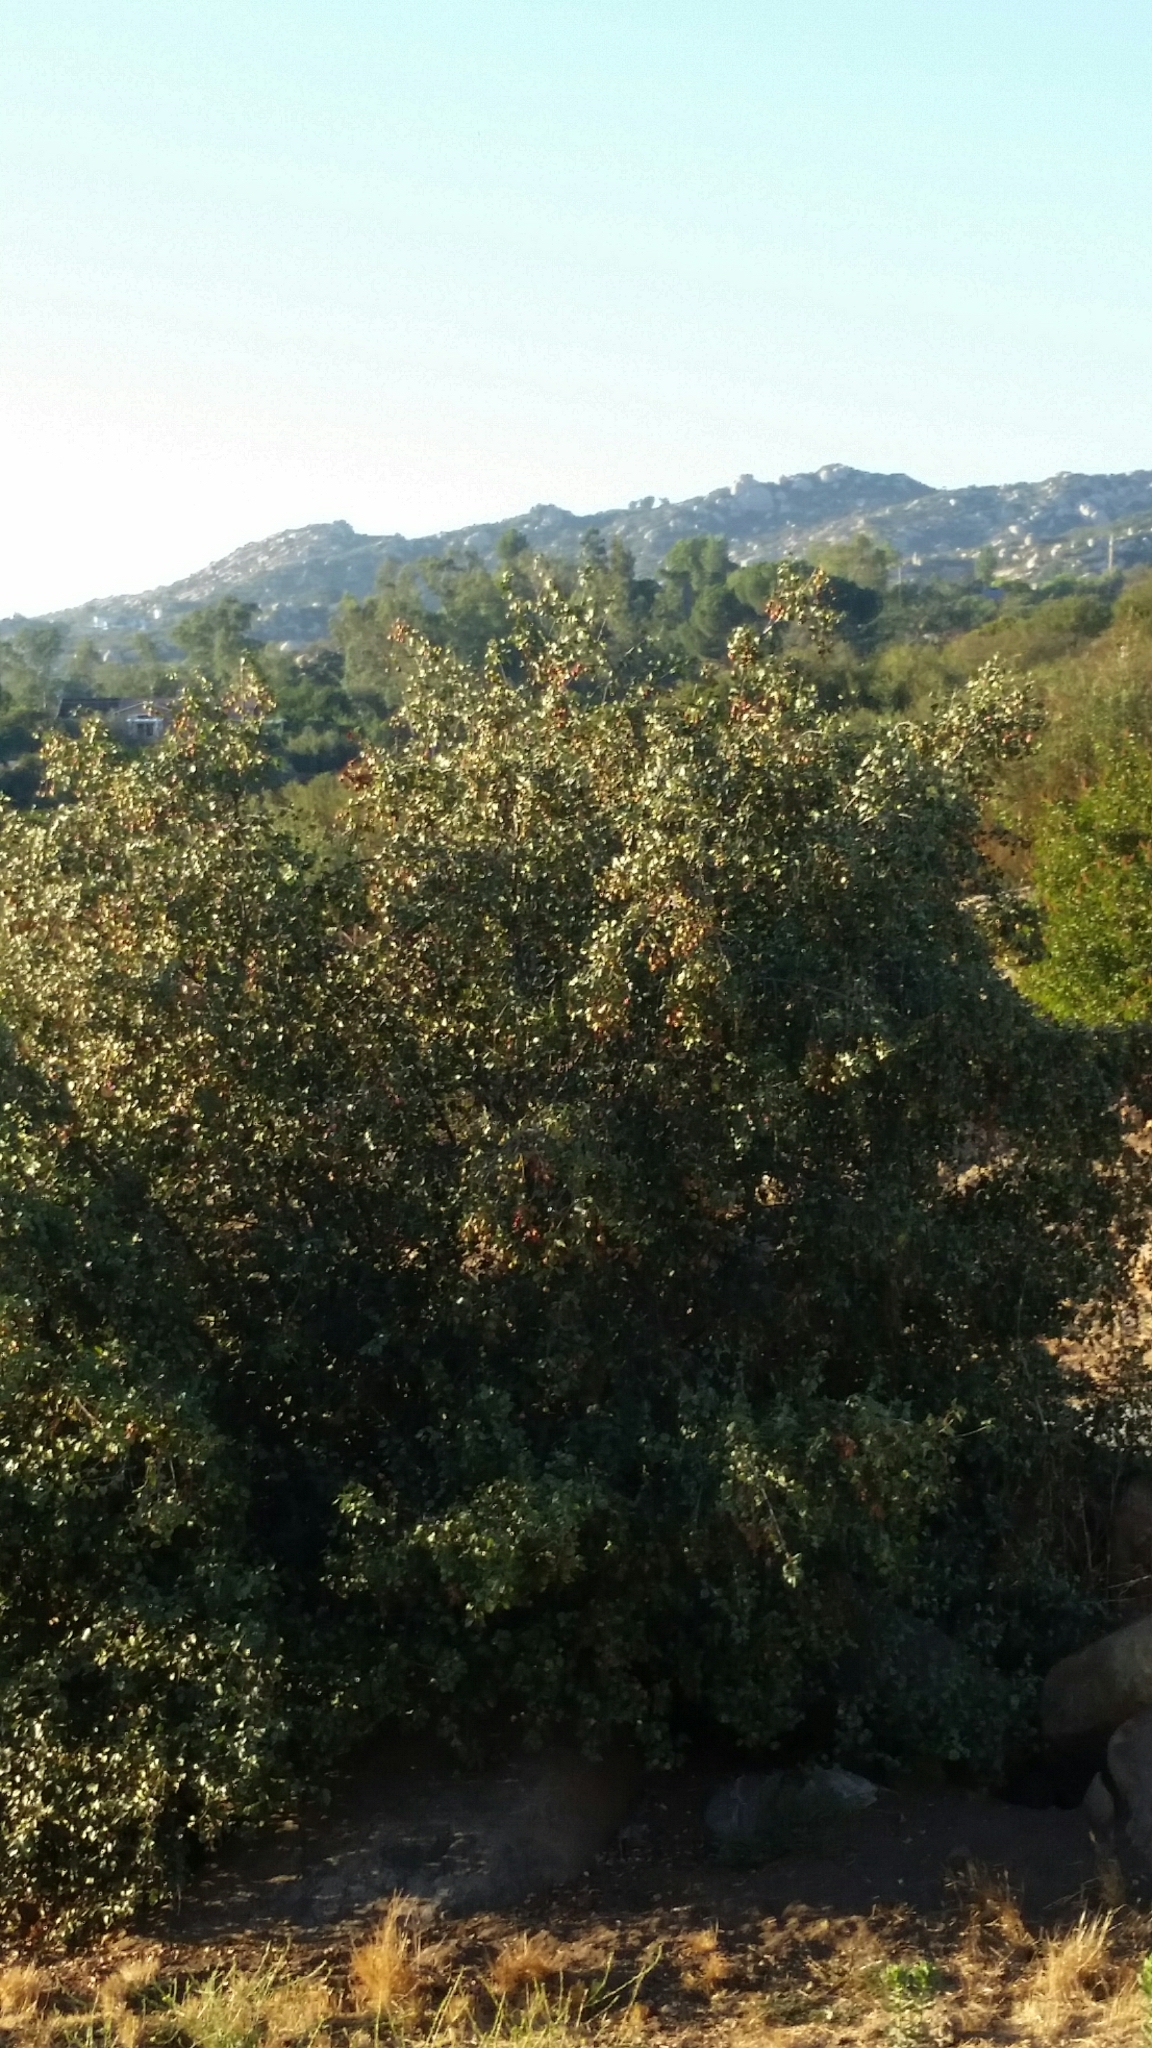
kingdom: Plantae
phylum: Tracheophyta
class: Magnoliopsida
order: Rosales
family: Rosaceae
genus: Prunus
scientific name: Prunus ilicifolia
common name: Hollyleaf cherry
